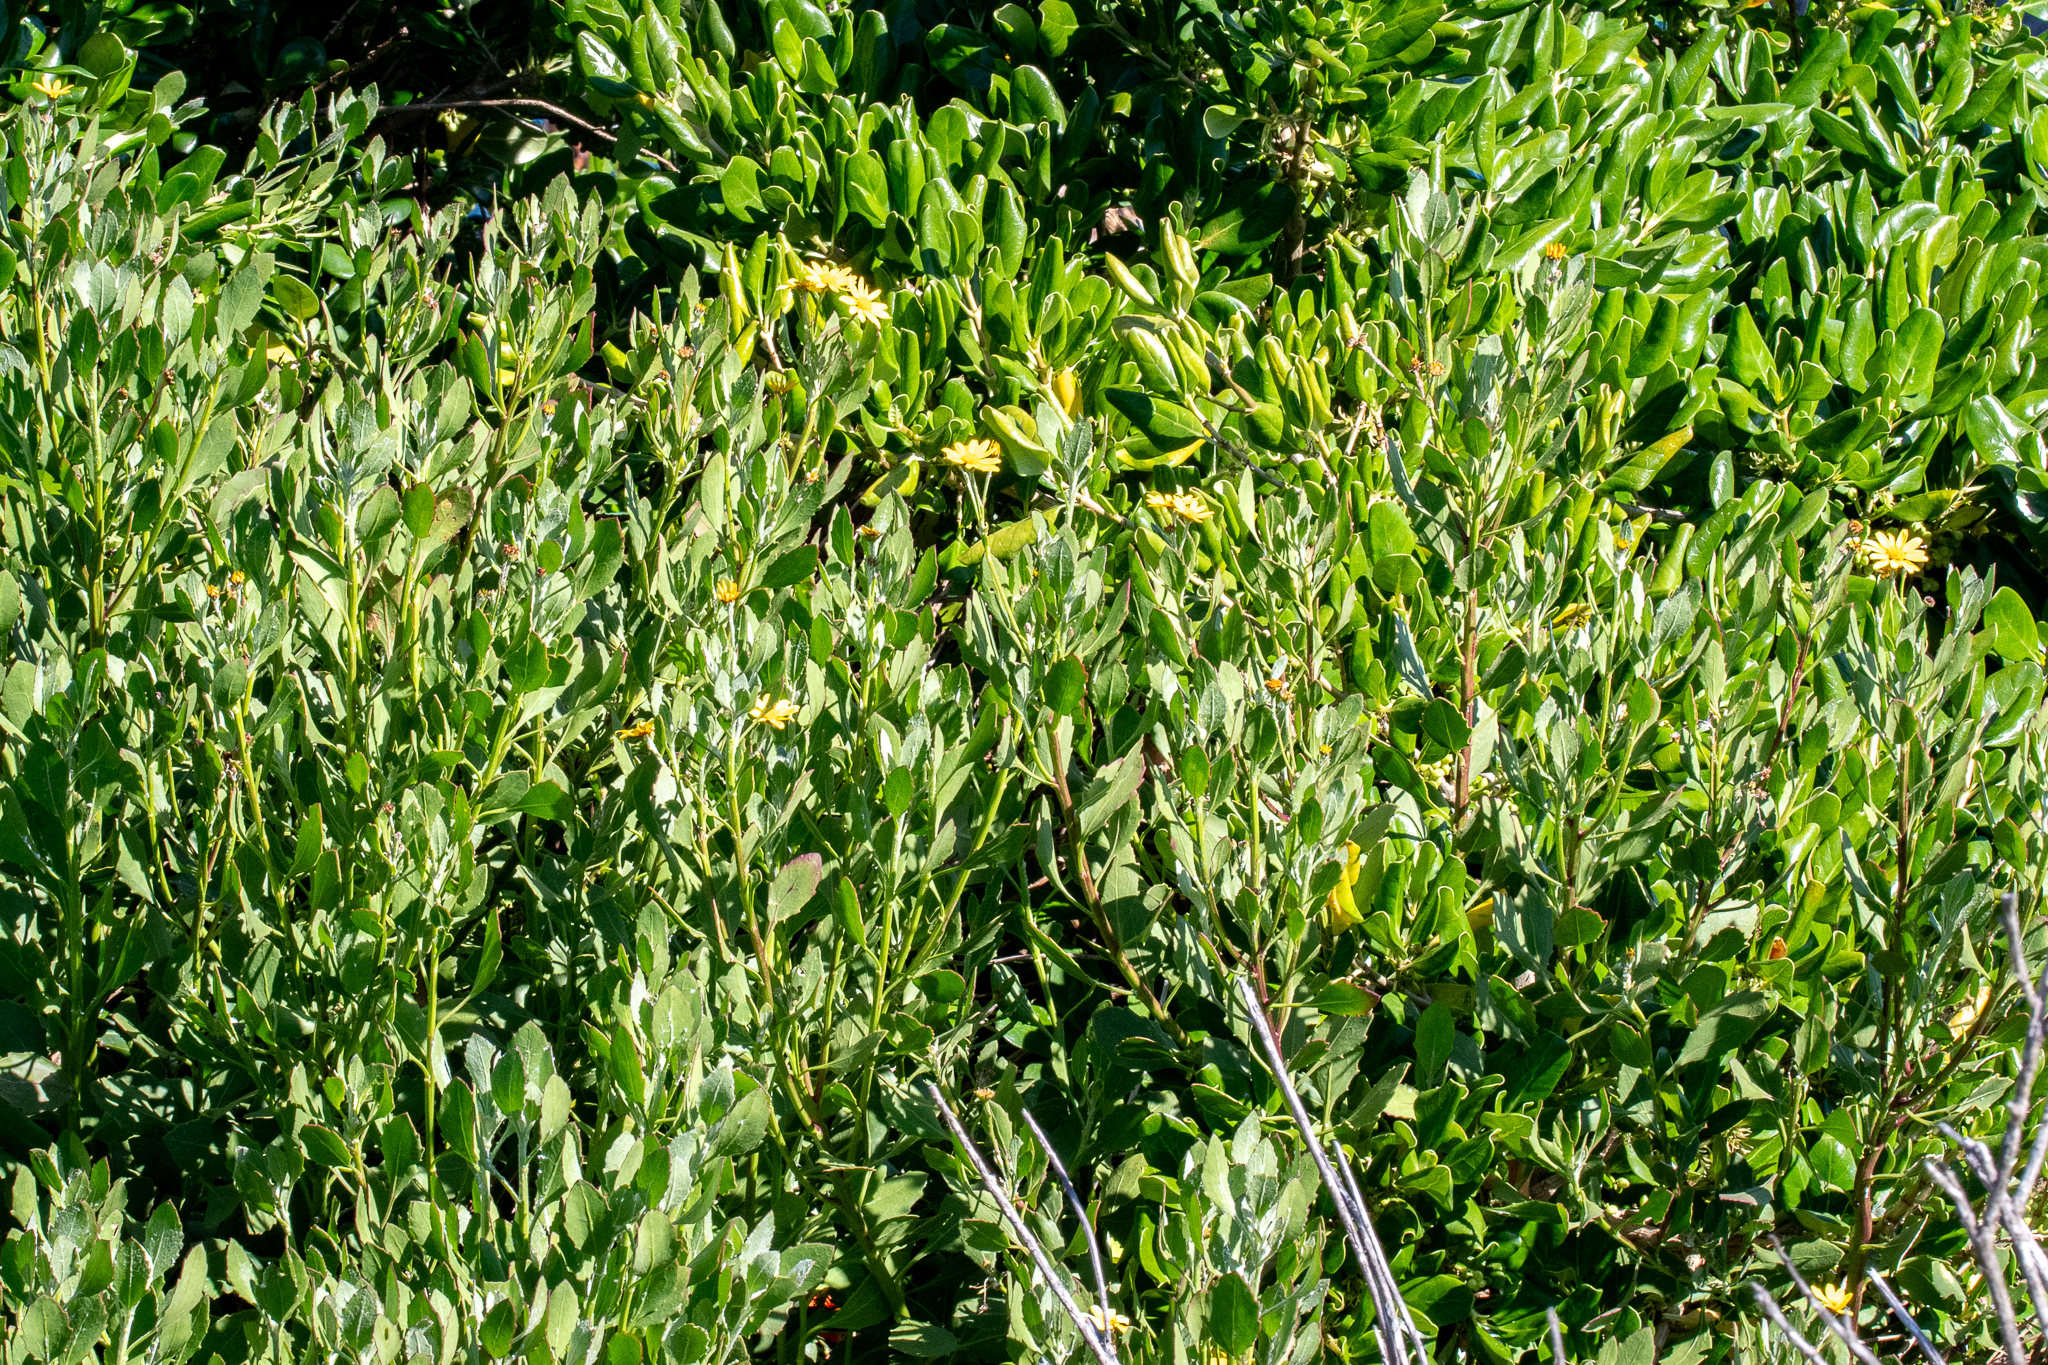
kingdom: Plantae
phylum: Tracheophyta
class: Magnoliopsida
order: Asterales
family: Asteraceae
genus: Osteospermum
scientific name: Osteospermum moniliferum
